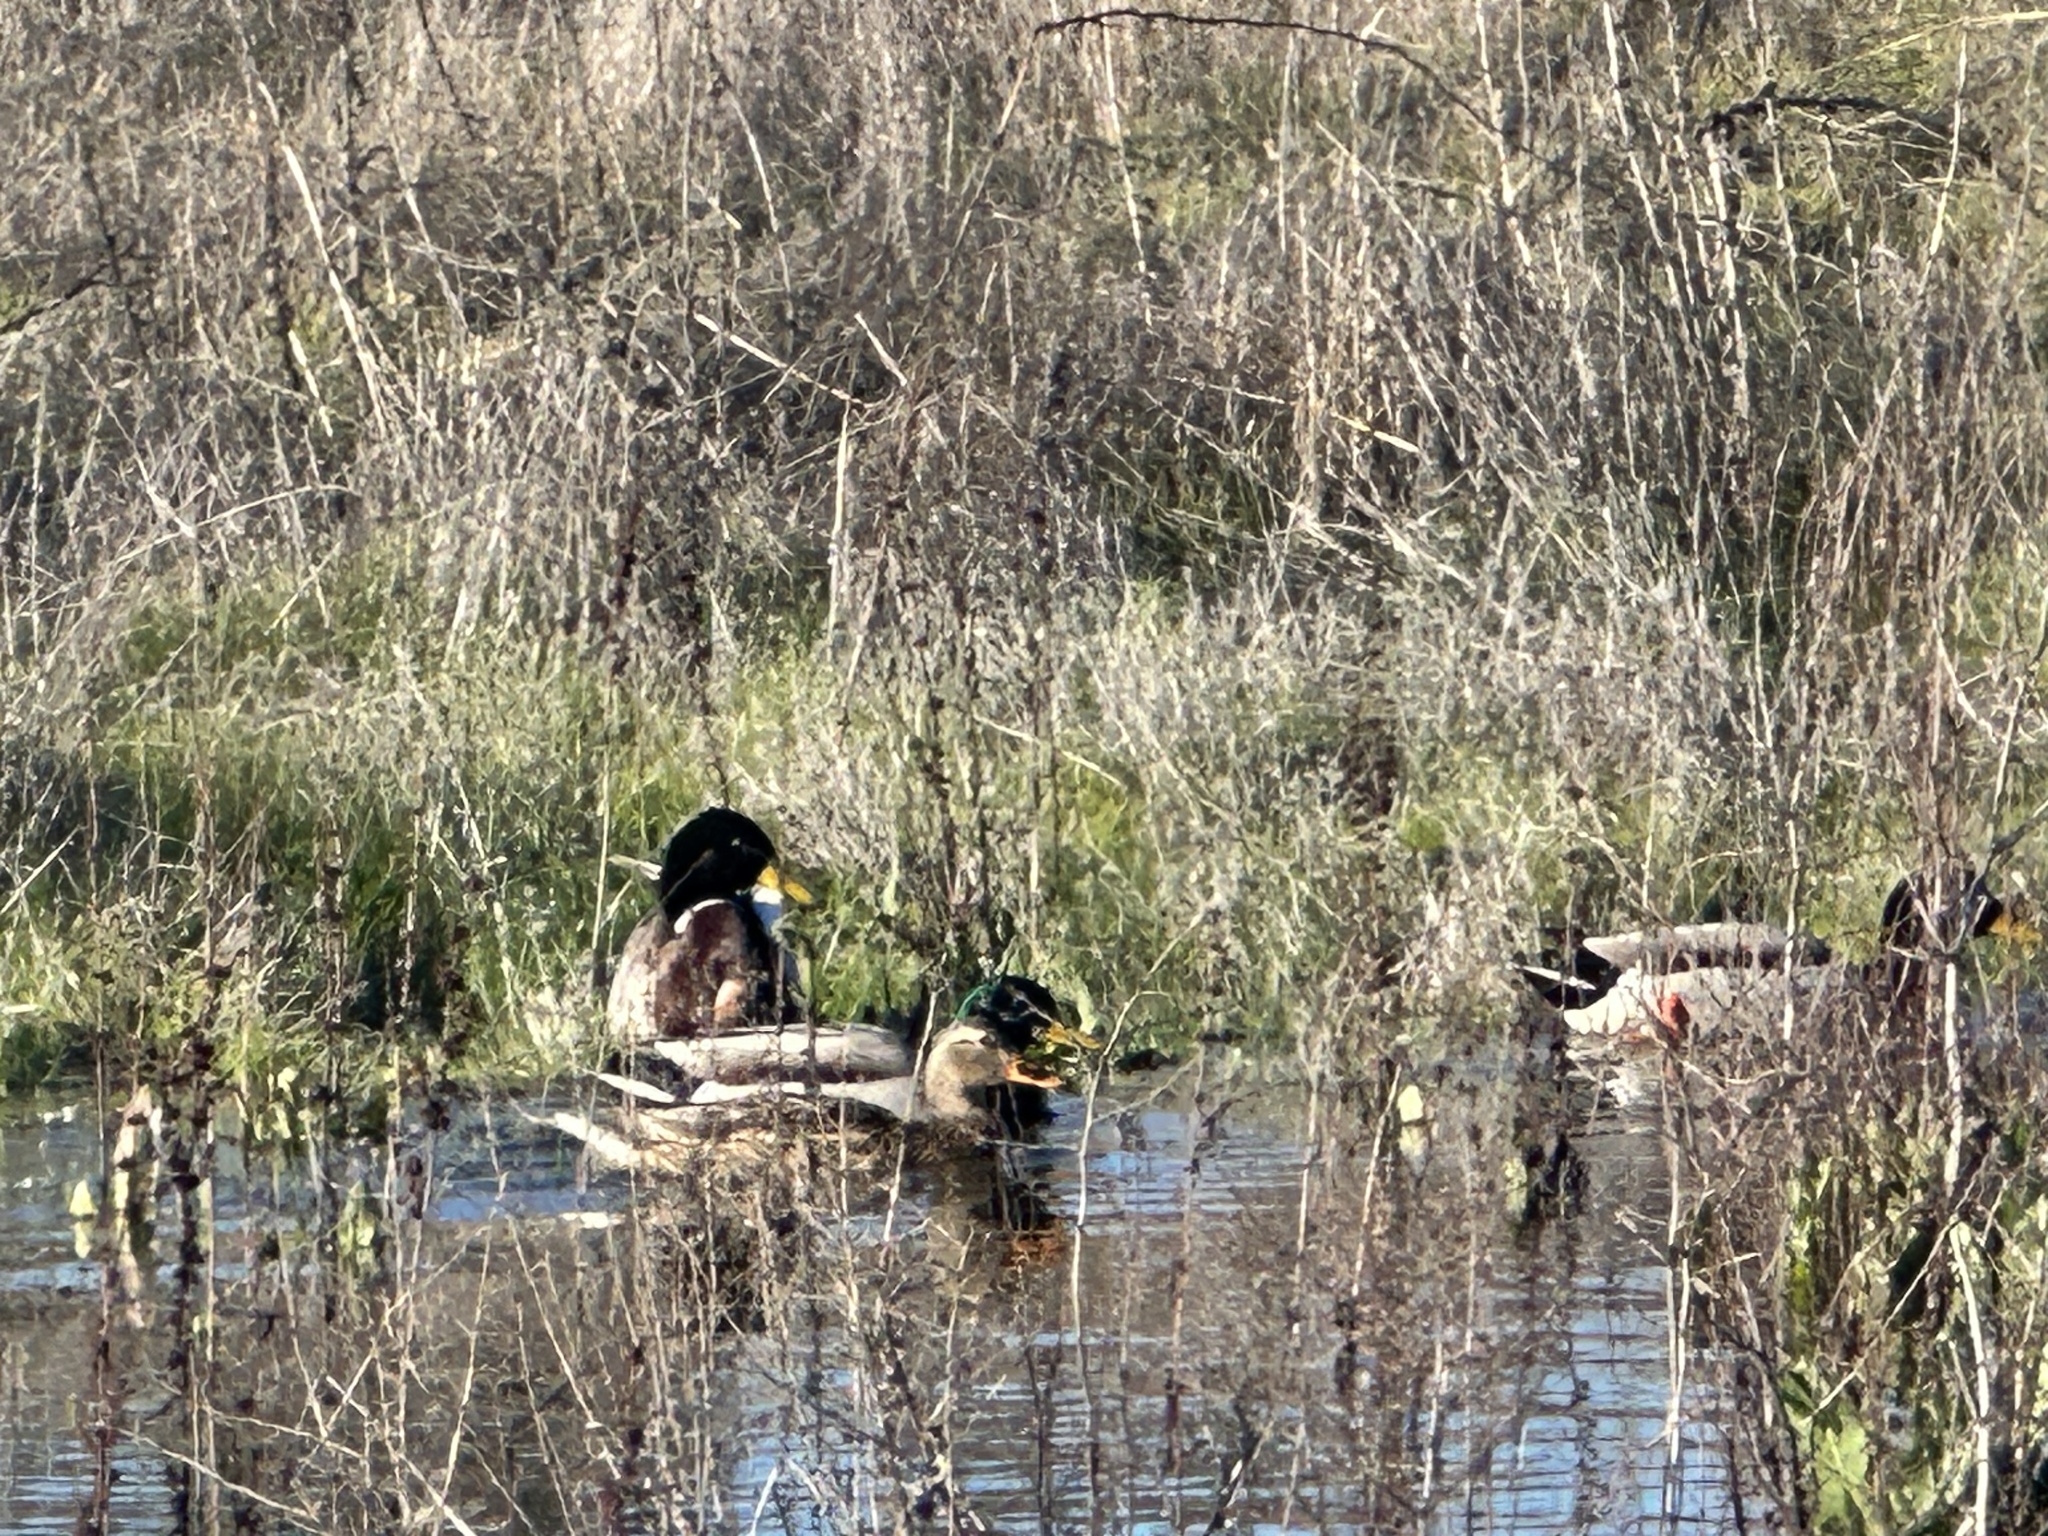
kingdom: Animalia
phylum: Chordata
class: Aves
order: Anseriformes
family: Anatidae
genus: Anas
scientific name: Anas platyrhynchos
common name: Mallard
